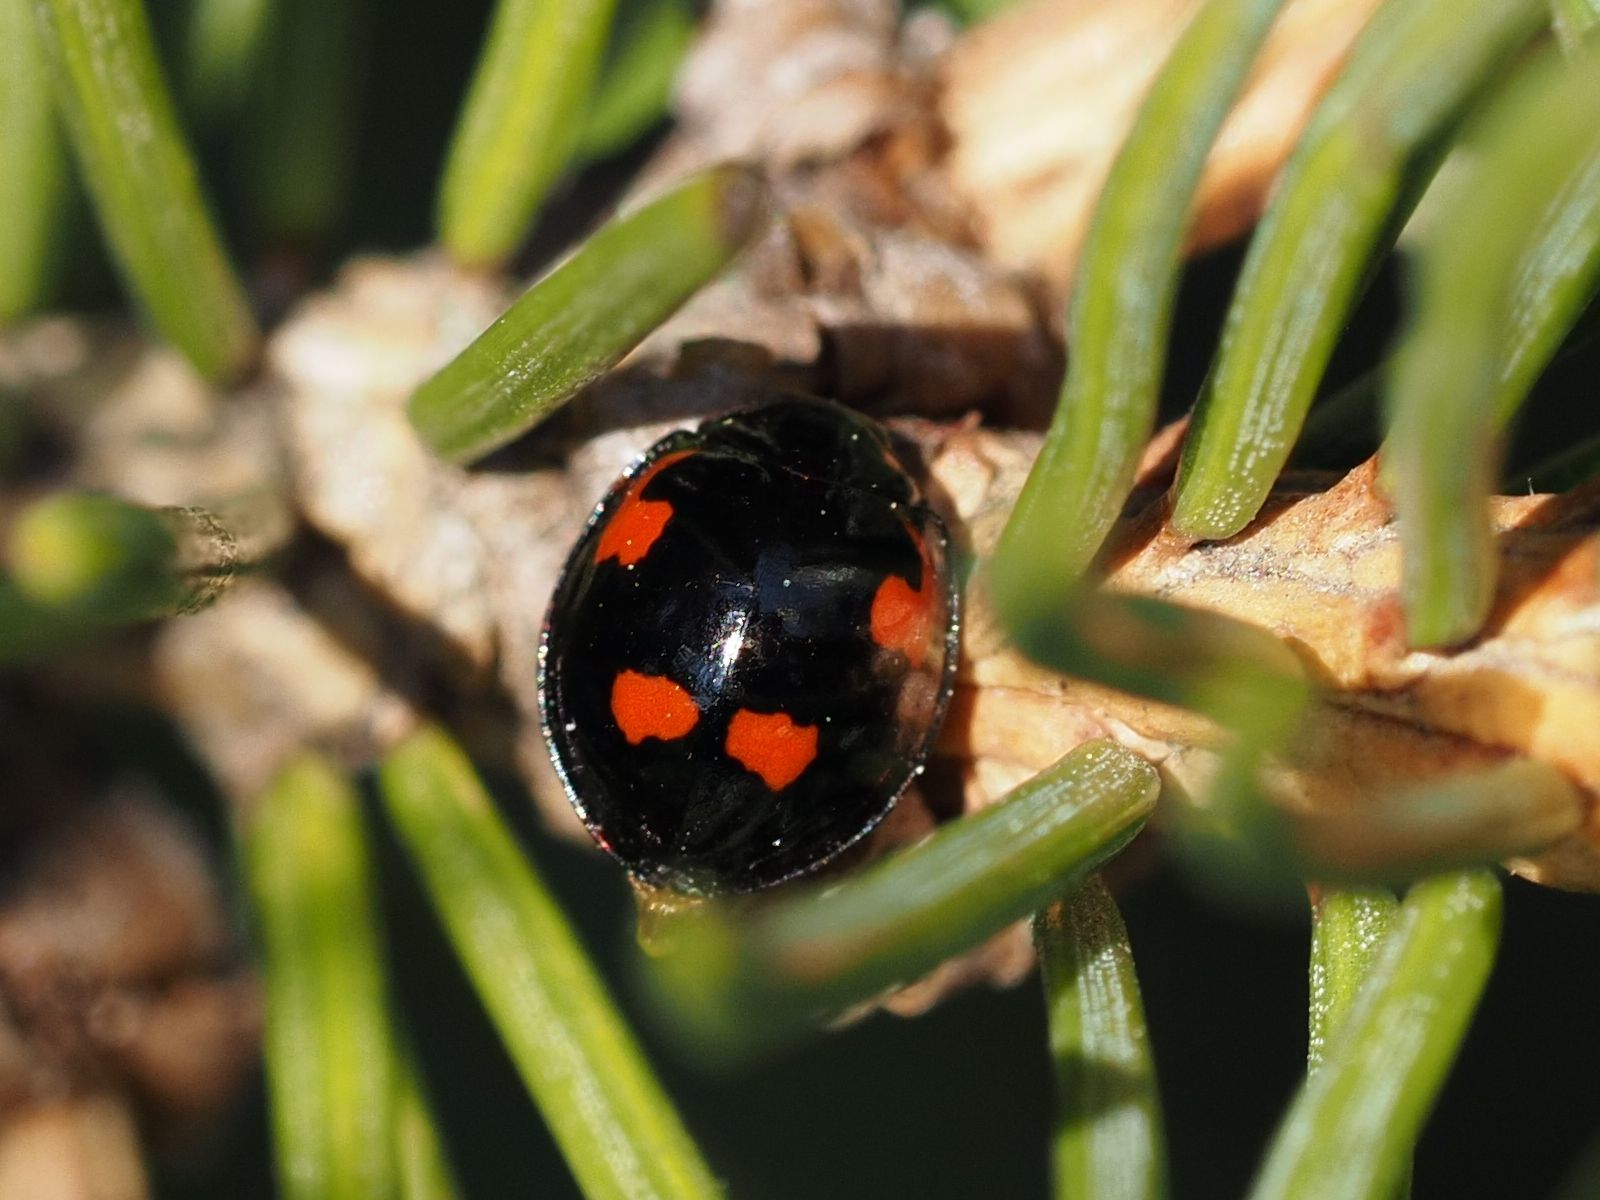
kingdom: Animalia
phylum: Arthropoda
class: Insecta
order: Coleoptera
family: Coccinellidae
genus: Brumus
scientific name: Brumus quadripustulatus
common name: Ladybird beetle
